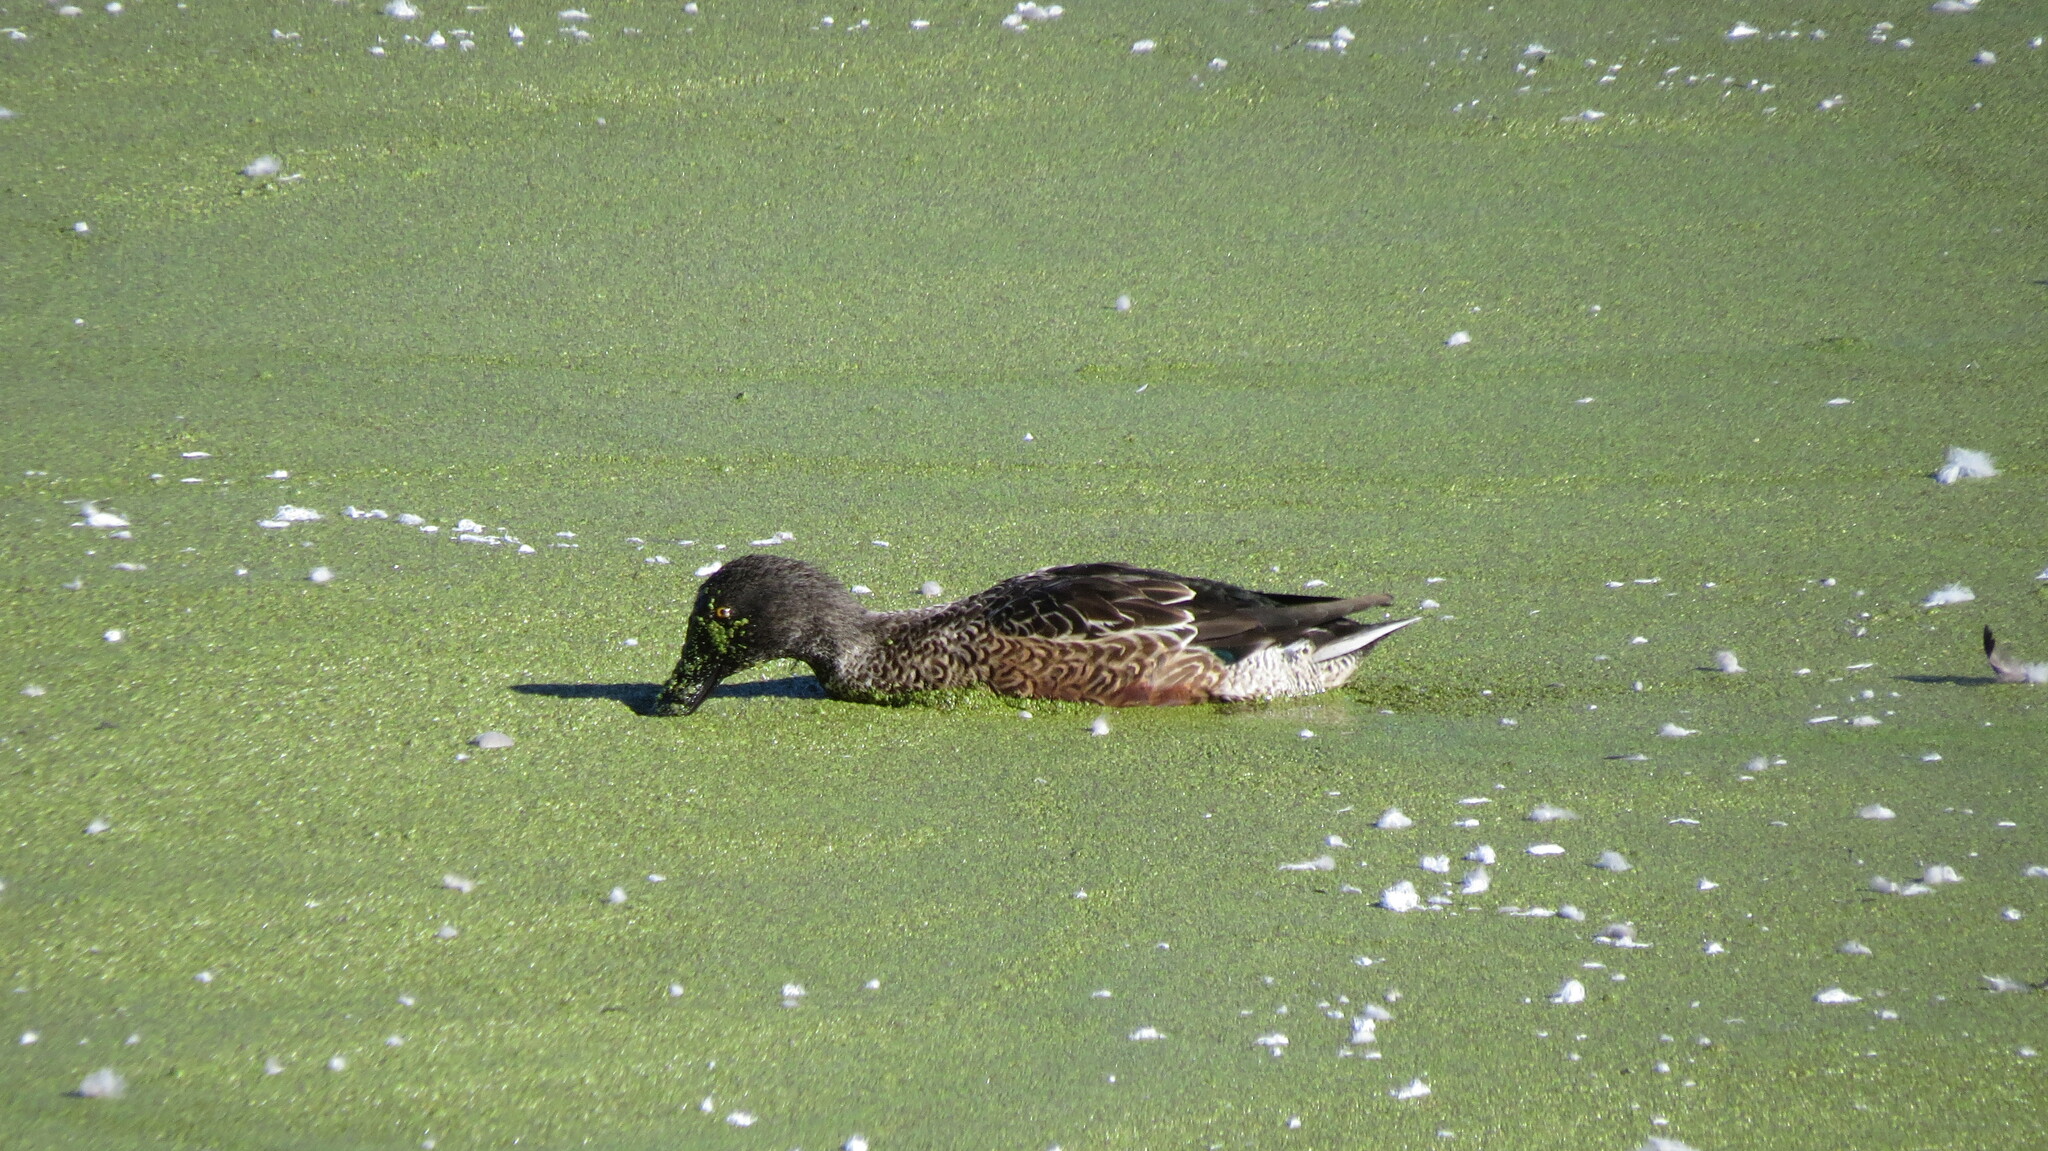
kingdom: Animalia
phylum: Chordata
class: Aves
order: Anseriformes
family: Anatidae
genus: Spatula
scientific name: Spatula clypeata
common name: Northern shoveler
